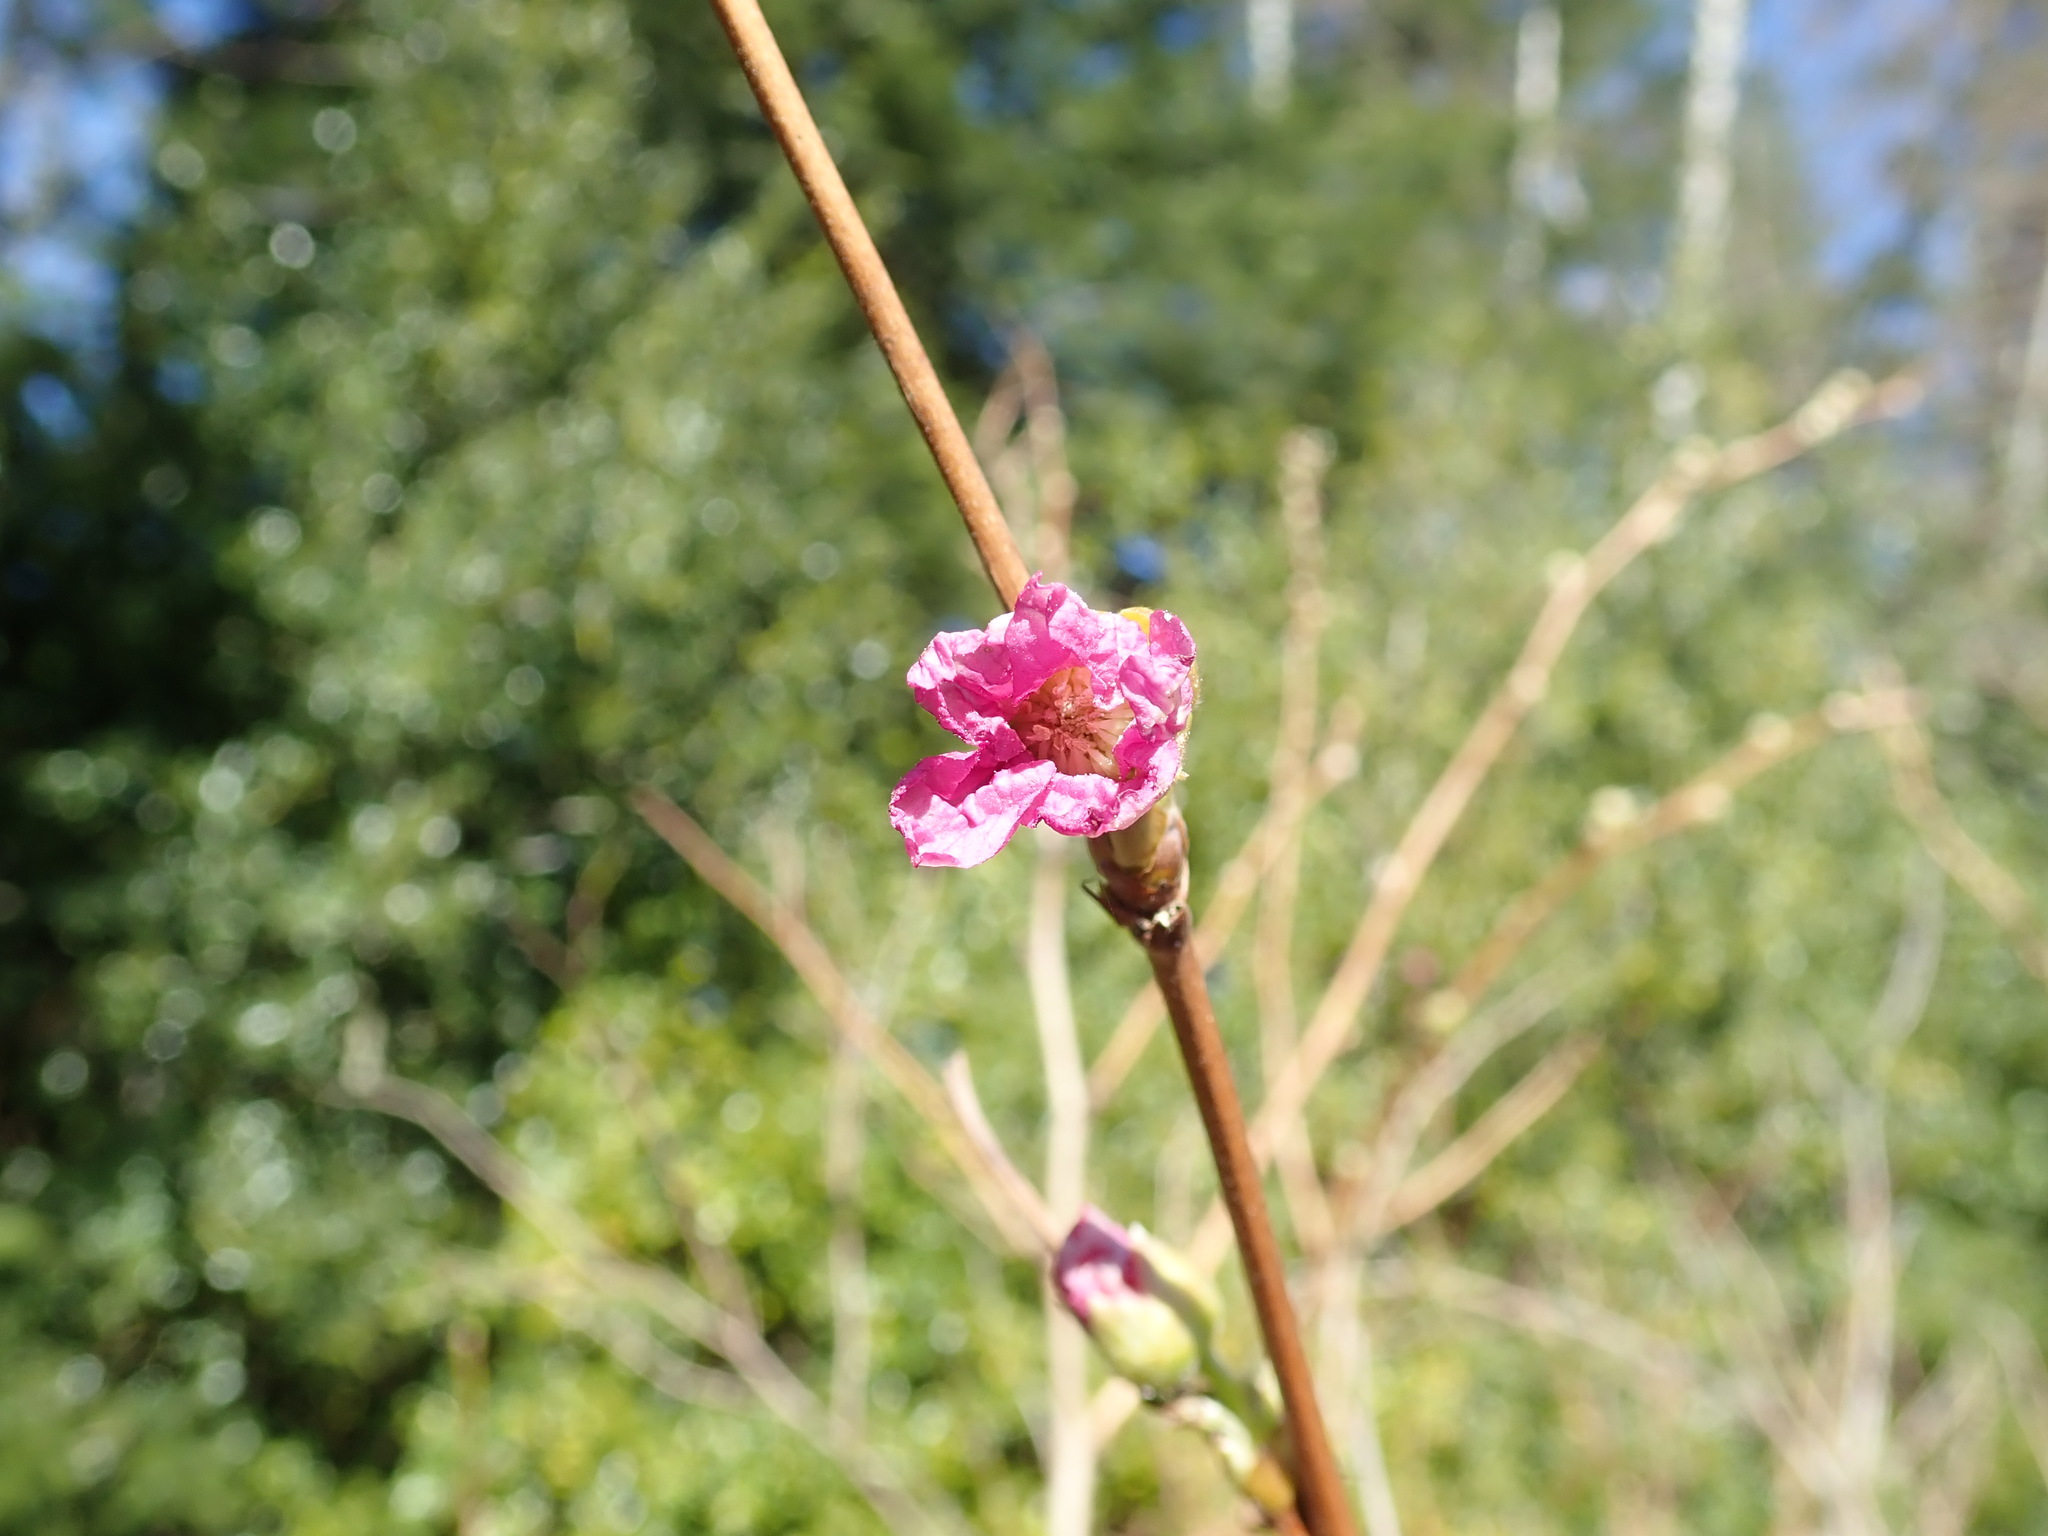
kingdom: Plantae
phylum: Tracheophyta
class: Magnoliopsida
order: Rosales
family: Rosaceae
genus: Rubus
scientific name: Rubus spectabilis
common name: Salmonberry
